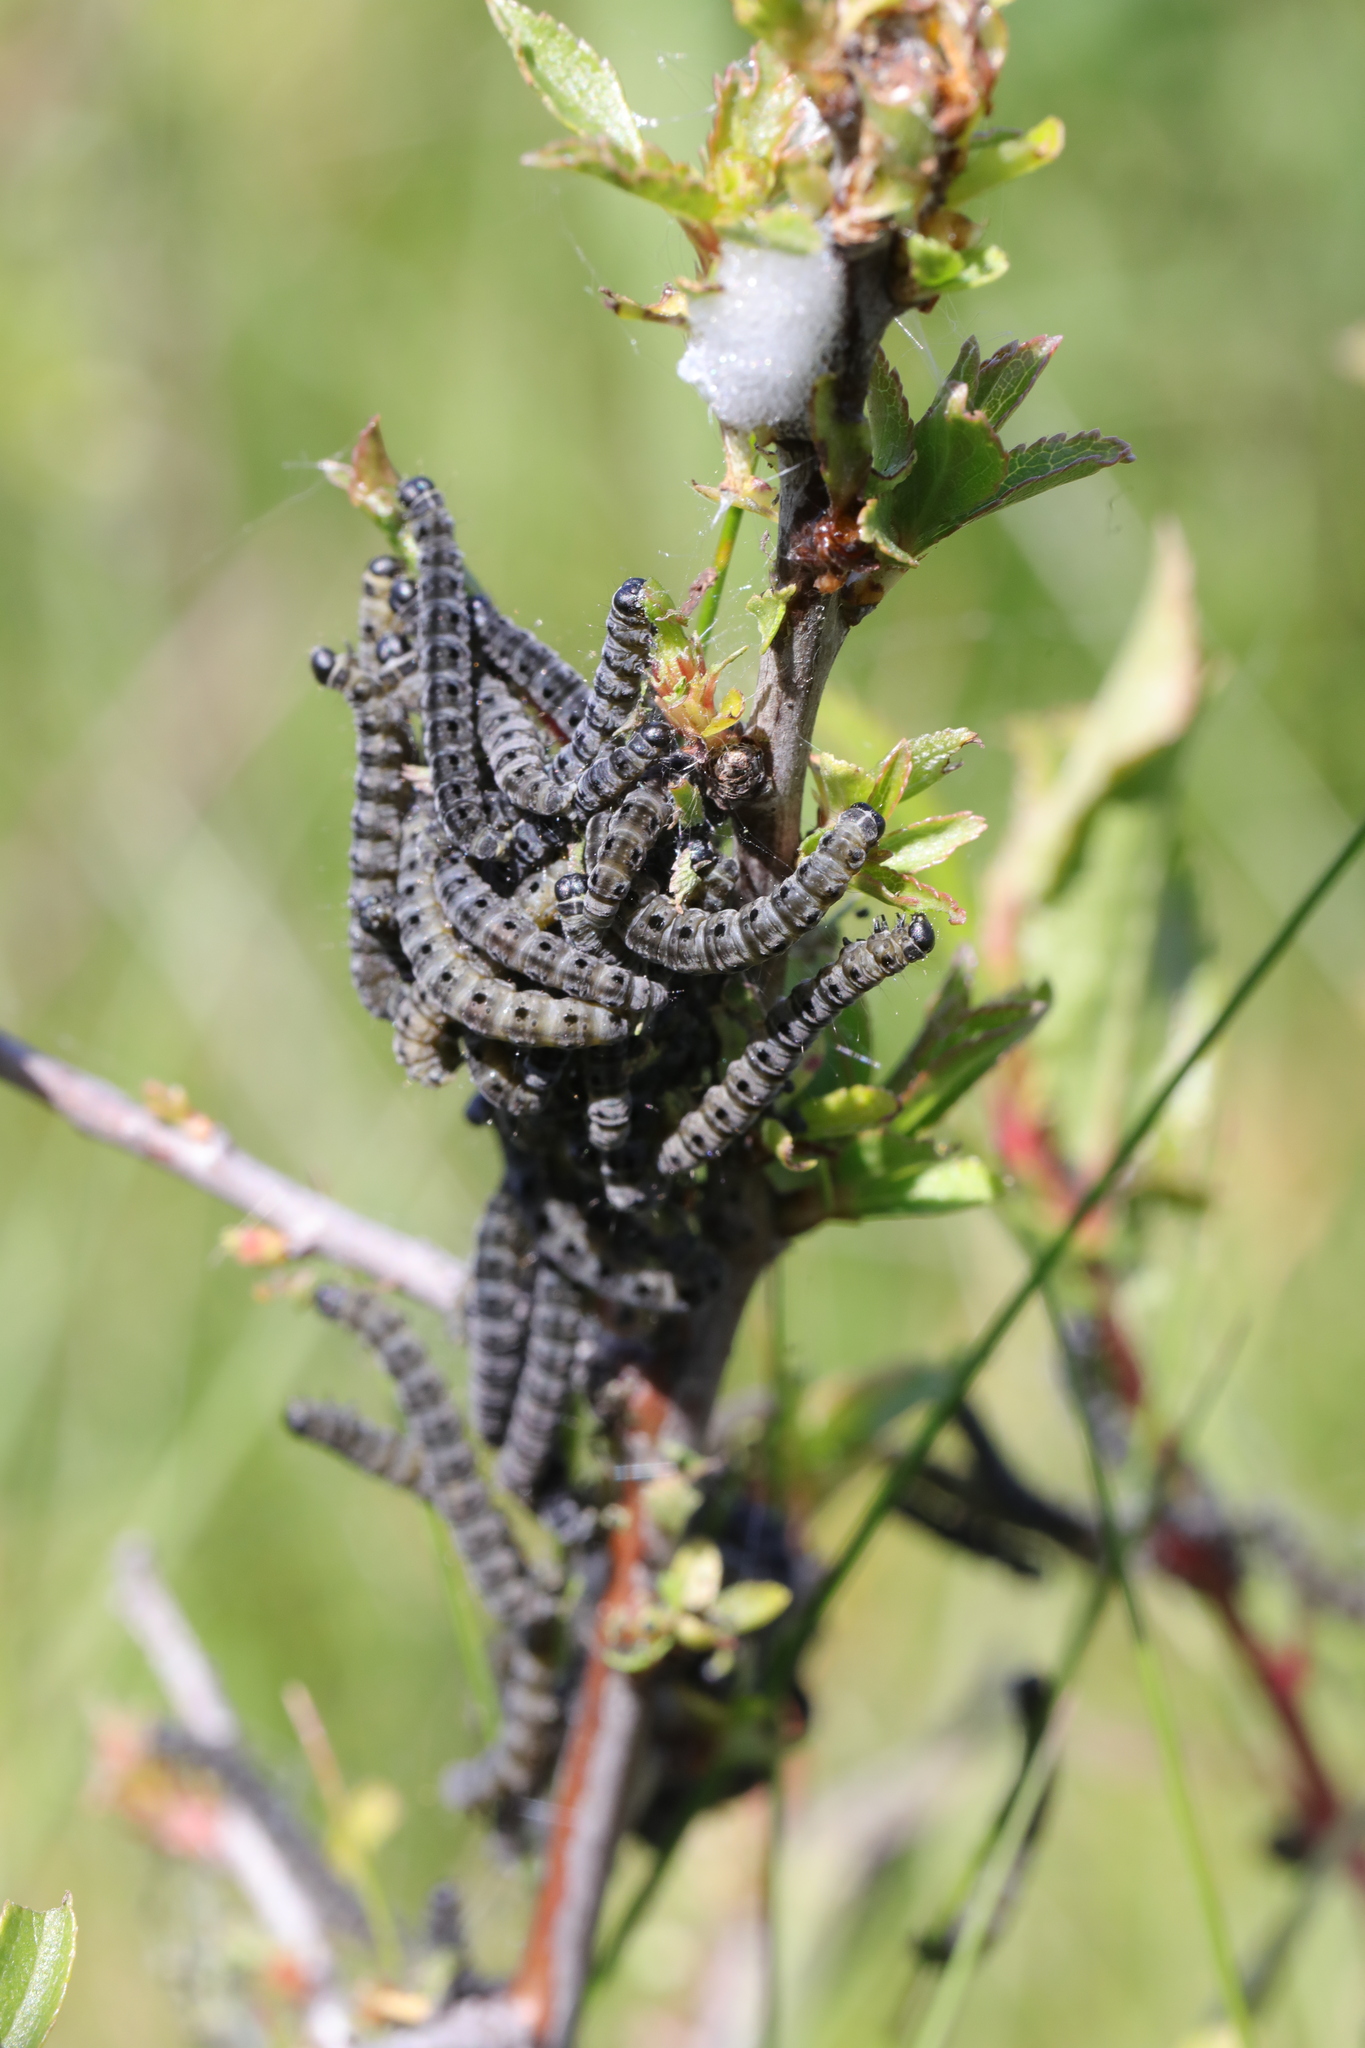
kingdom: Animalia
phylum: Arthropoda
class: Insecta
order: Lepidoptera
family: Yponomeutidae
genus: Yponomeuta
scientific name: Yponomeuta padella
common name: Orchard ermine
